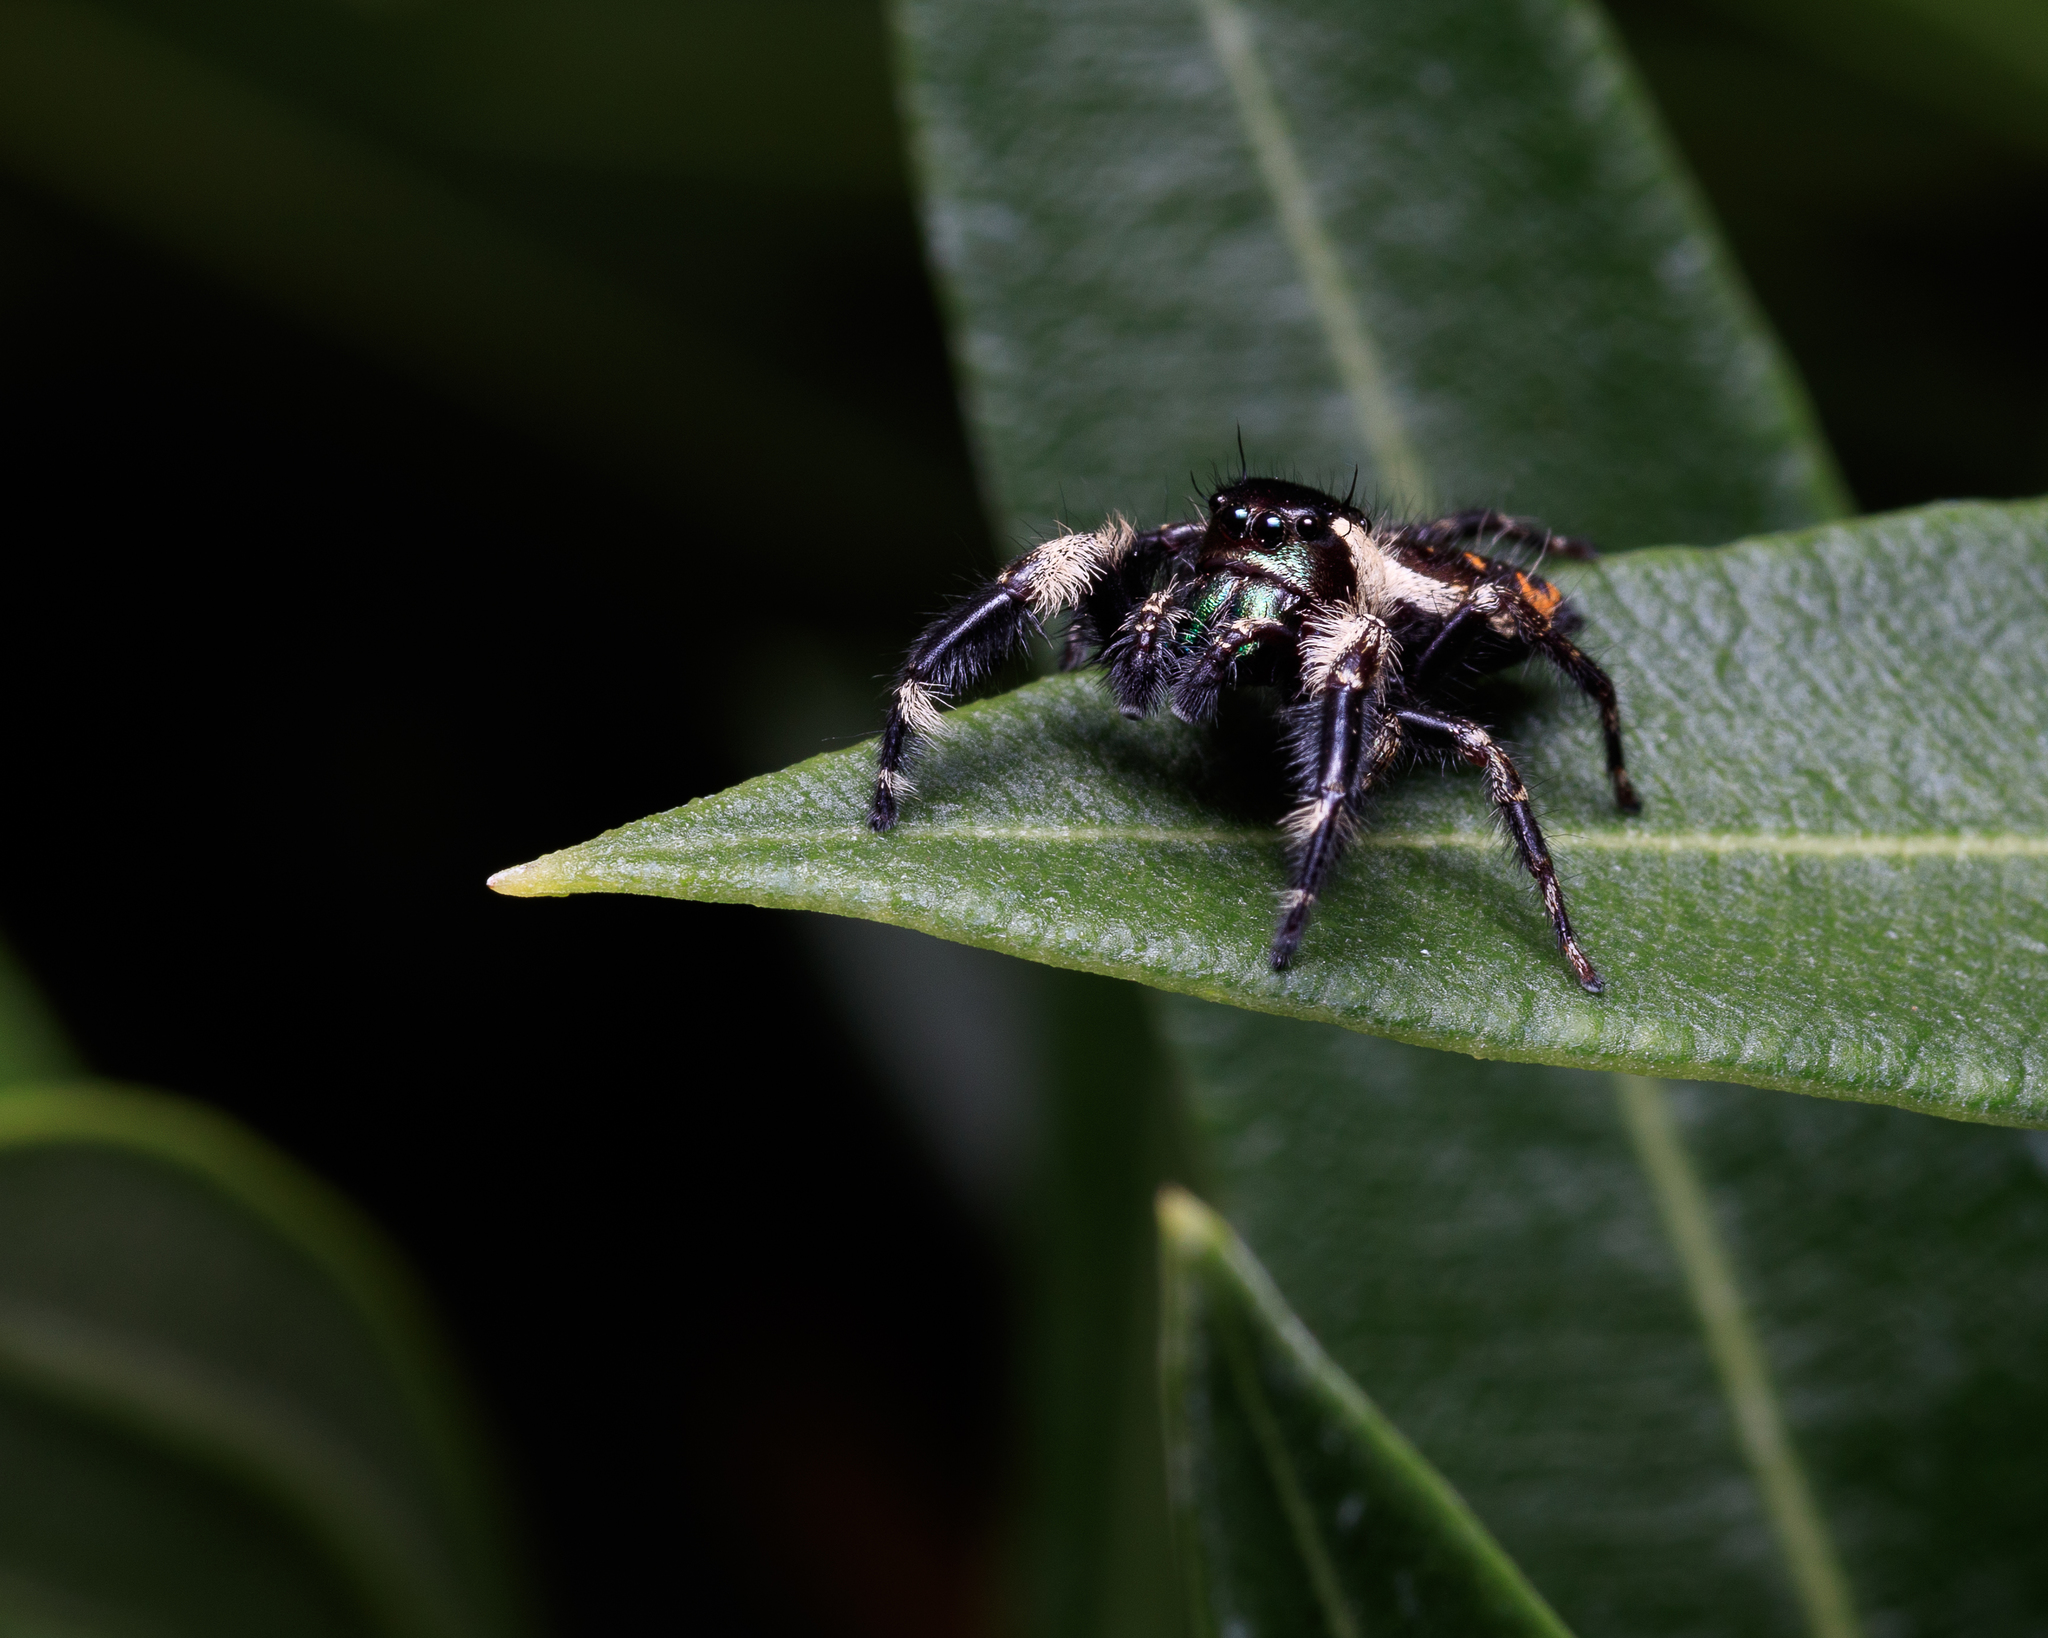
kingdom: Animalia
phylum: Arthropoda
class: Arachnida
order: Araneae
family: Salticidae
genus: Phidippus
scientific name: Phidippus otiosus
